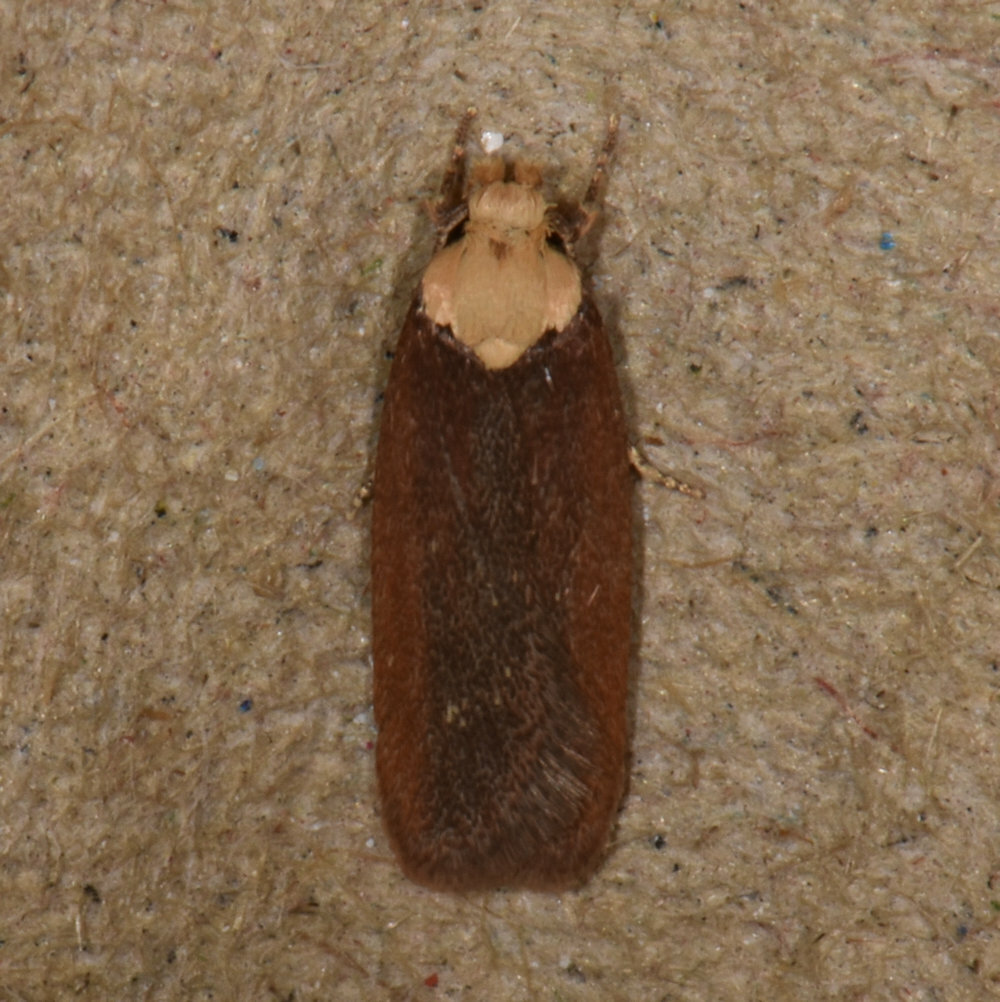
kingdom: Animalia
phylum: Arthropoda
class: Insecta
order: Lepidoptera
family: Depressariidae
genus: Depressaria
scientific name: Depressaria depressana
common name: Lost flat-body
